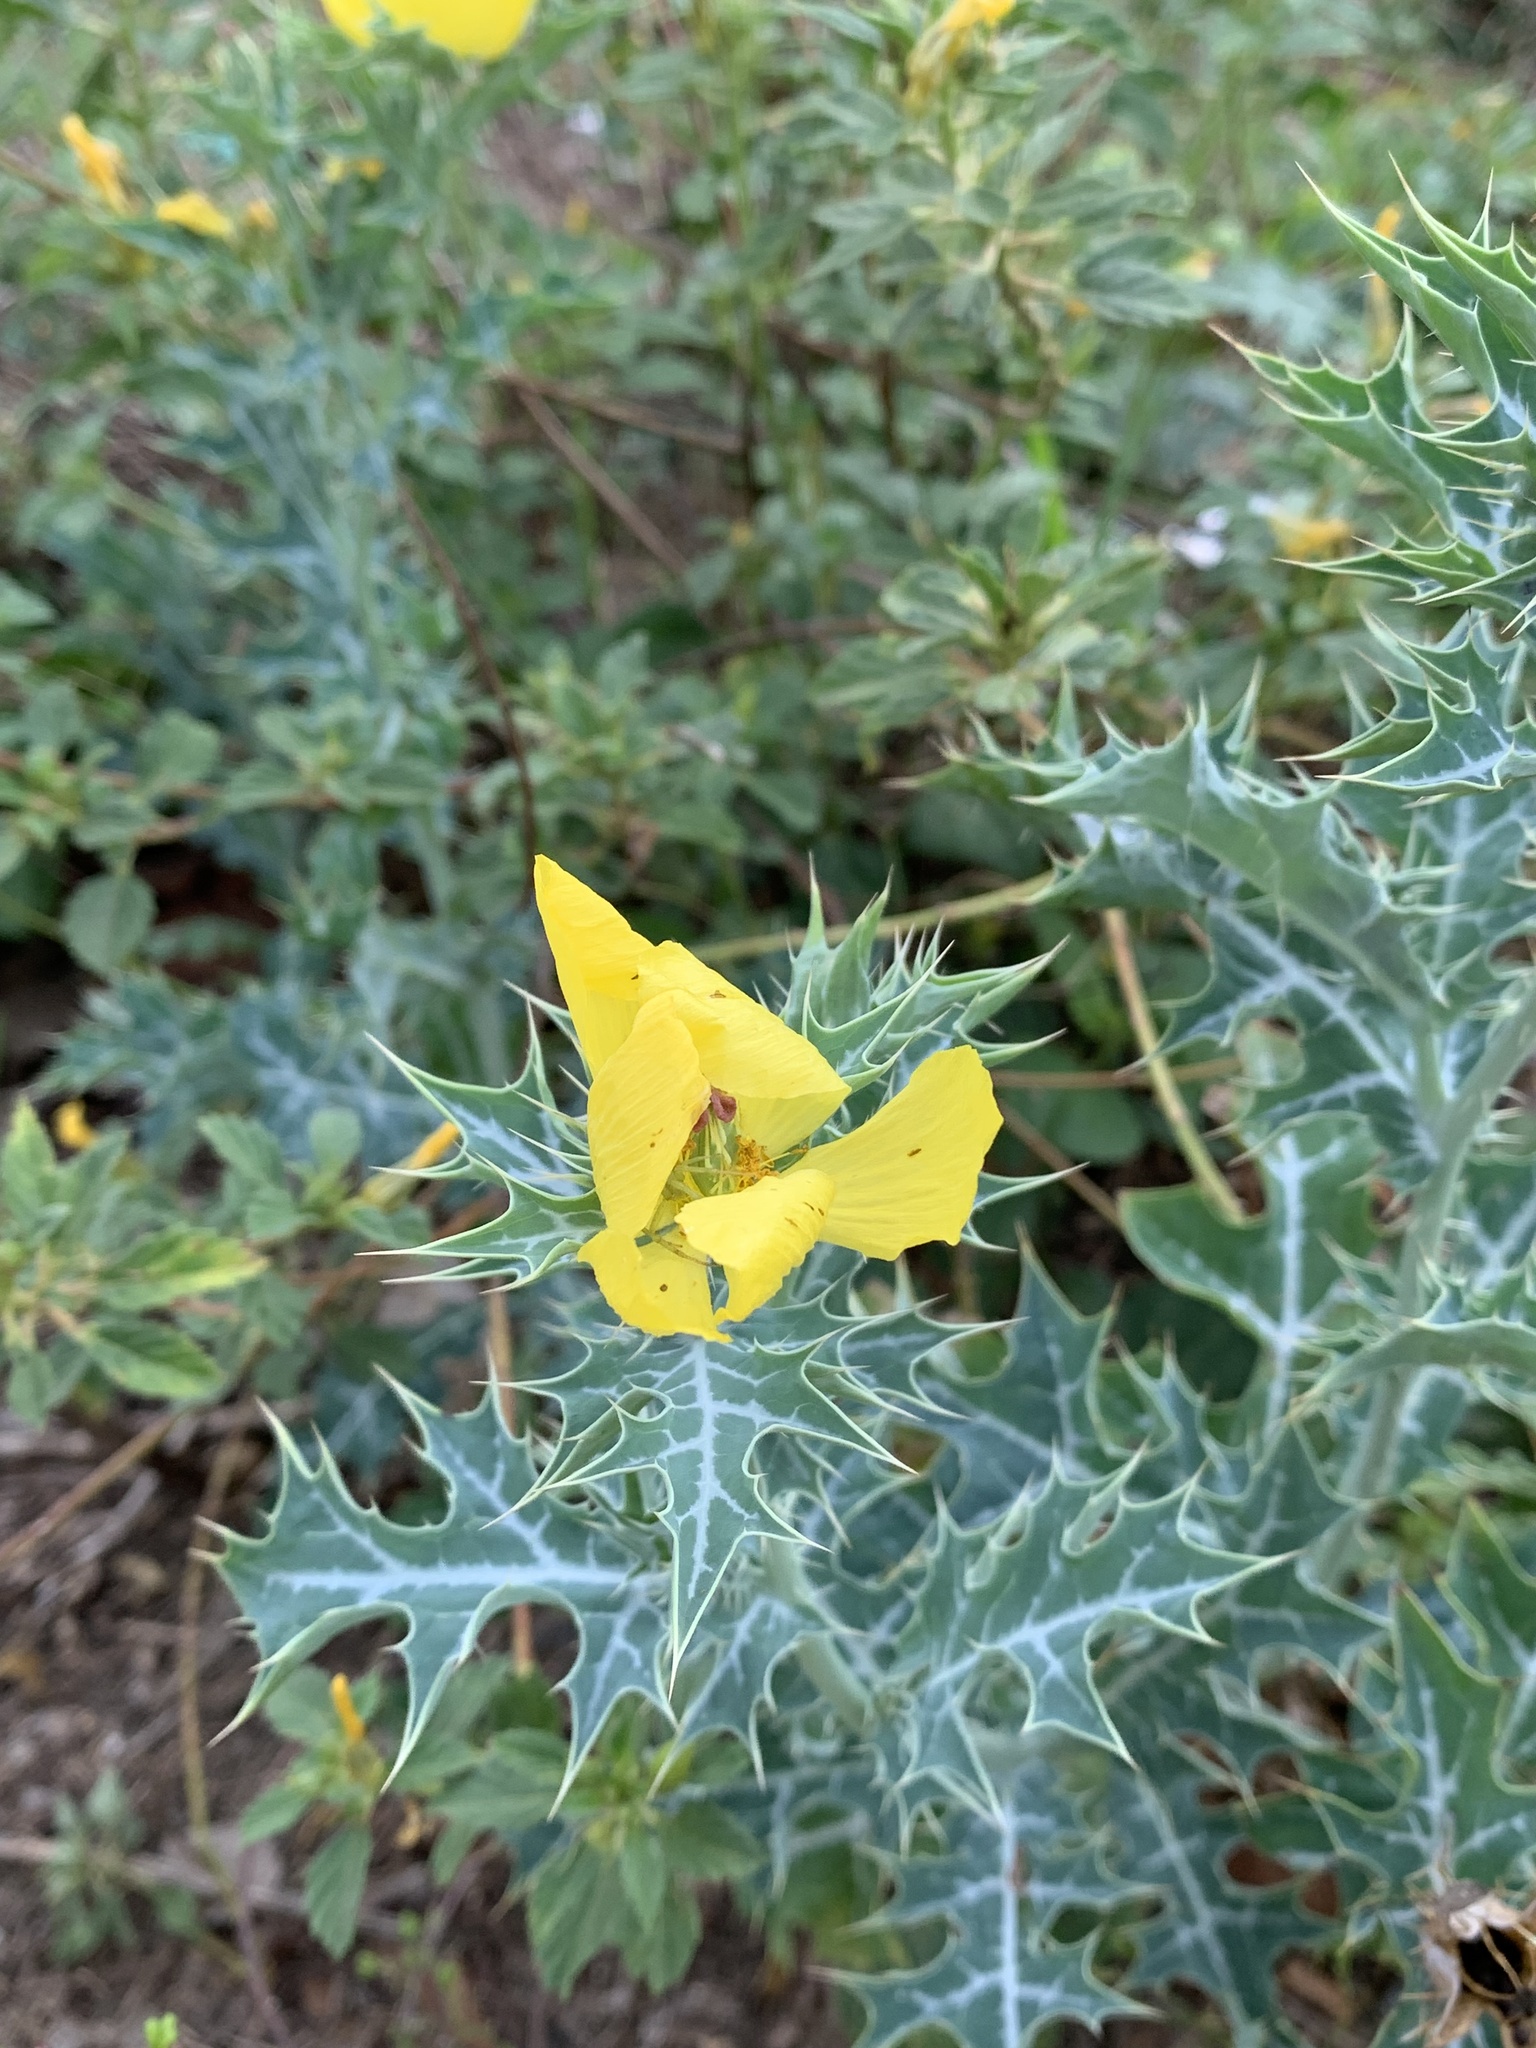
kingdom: Plantae
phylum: Tracheophyta
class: Magnoliopsida
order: Ranunculales
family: Papaveraceae
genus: Argemone
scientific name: Argemone mexicana
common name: Mexican poppy
